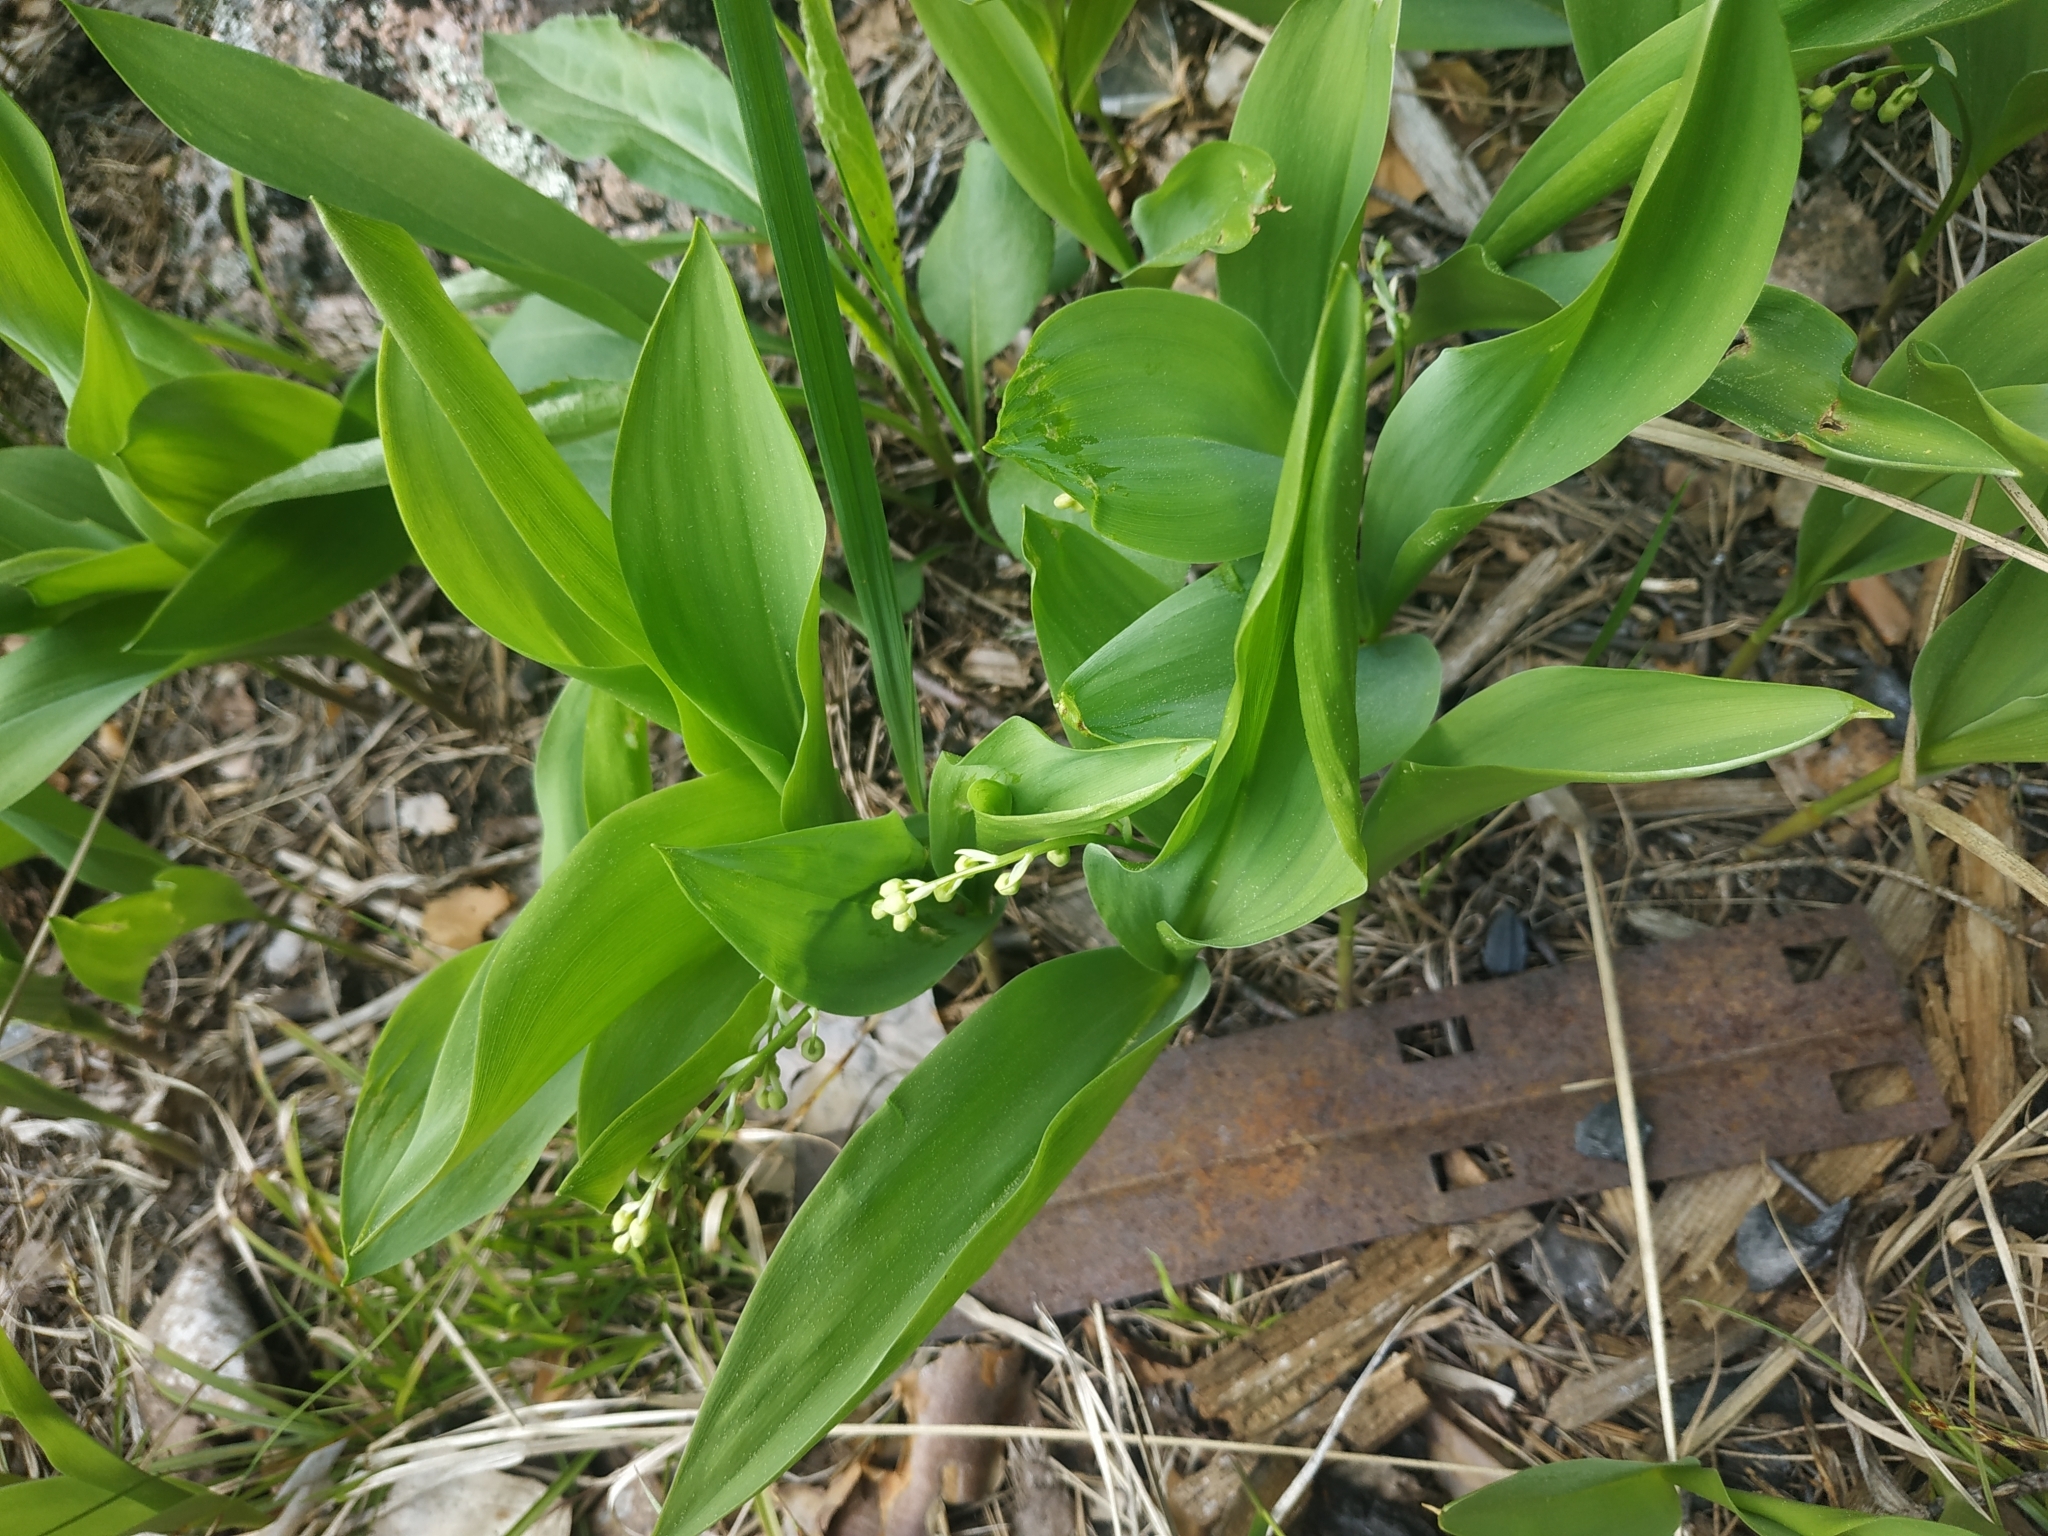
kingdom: Plantae
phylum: Tracheophyta
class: Liliopsida
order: Asparagales
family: Asparagaceae
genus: Convallaria
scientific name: Convallaria majalis
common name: Lily-of-the-valley
